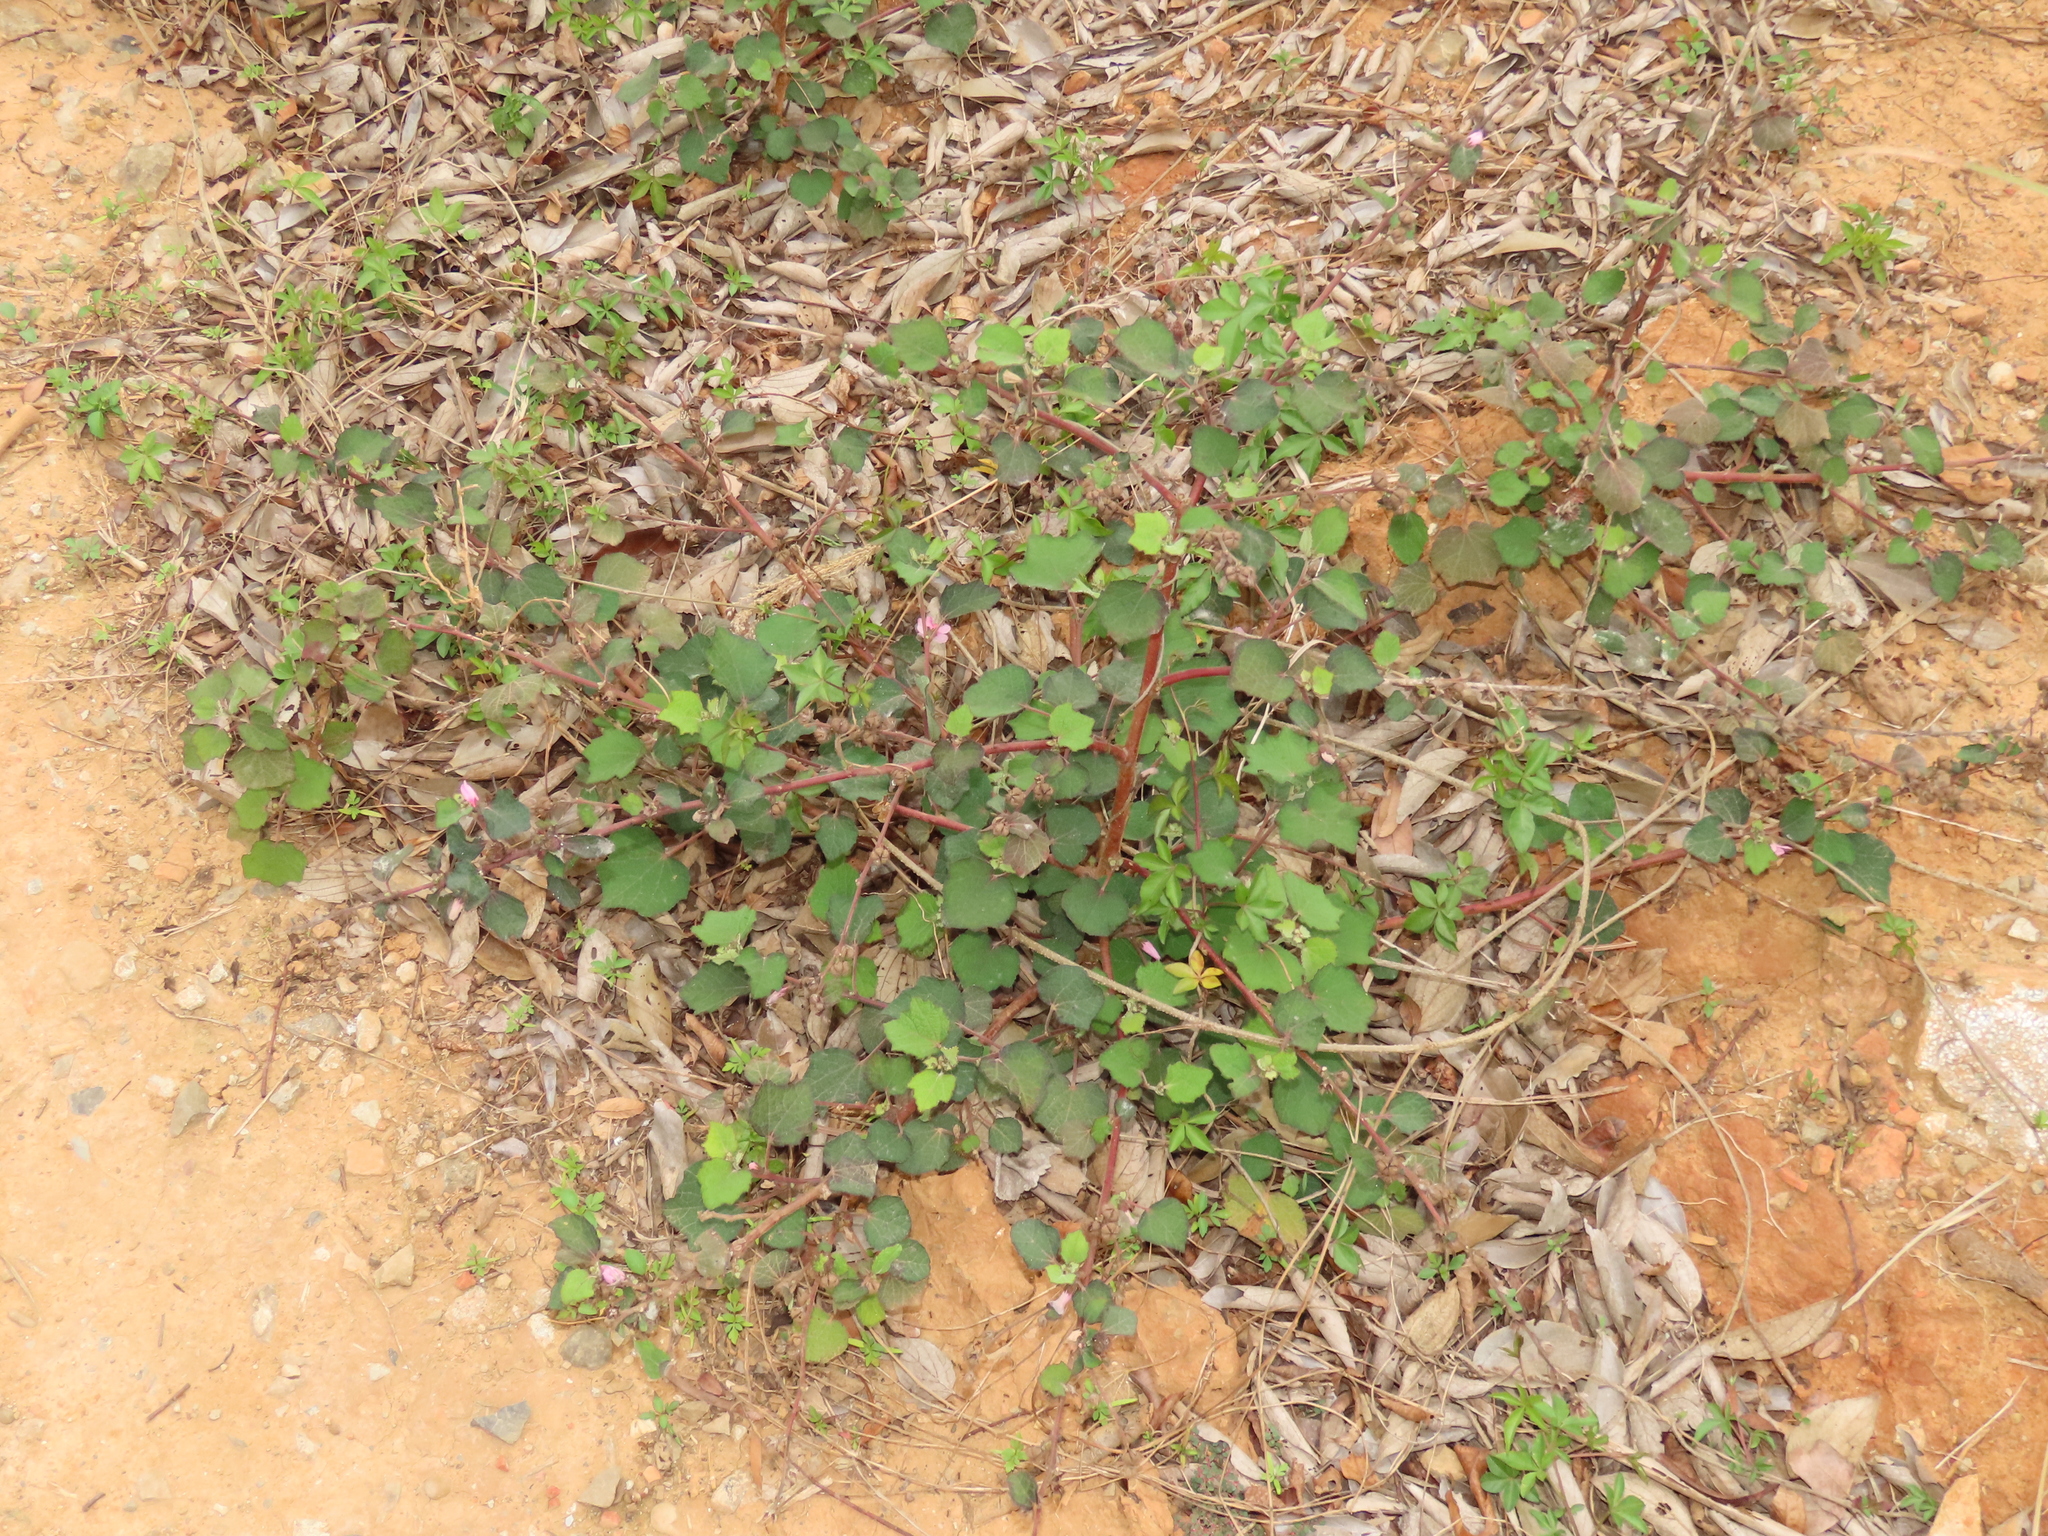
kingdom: Plantae
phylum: Tracheophyta
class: Magnoliopsida
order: Malvales
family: Malvaceae
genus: Urena
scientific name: Urena lobata
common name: Caesarweed
